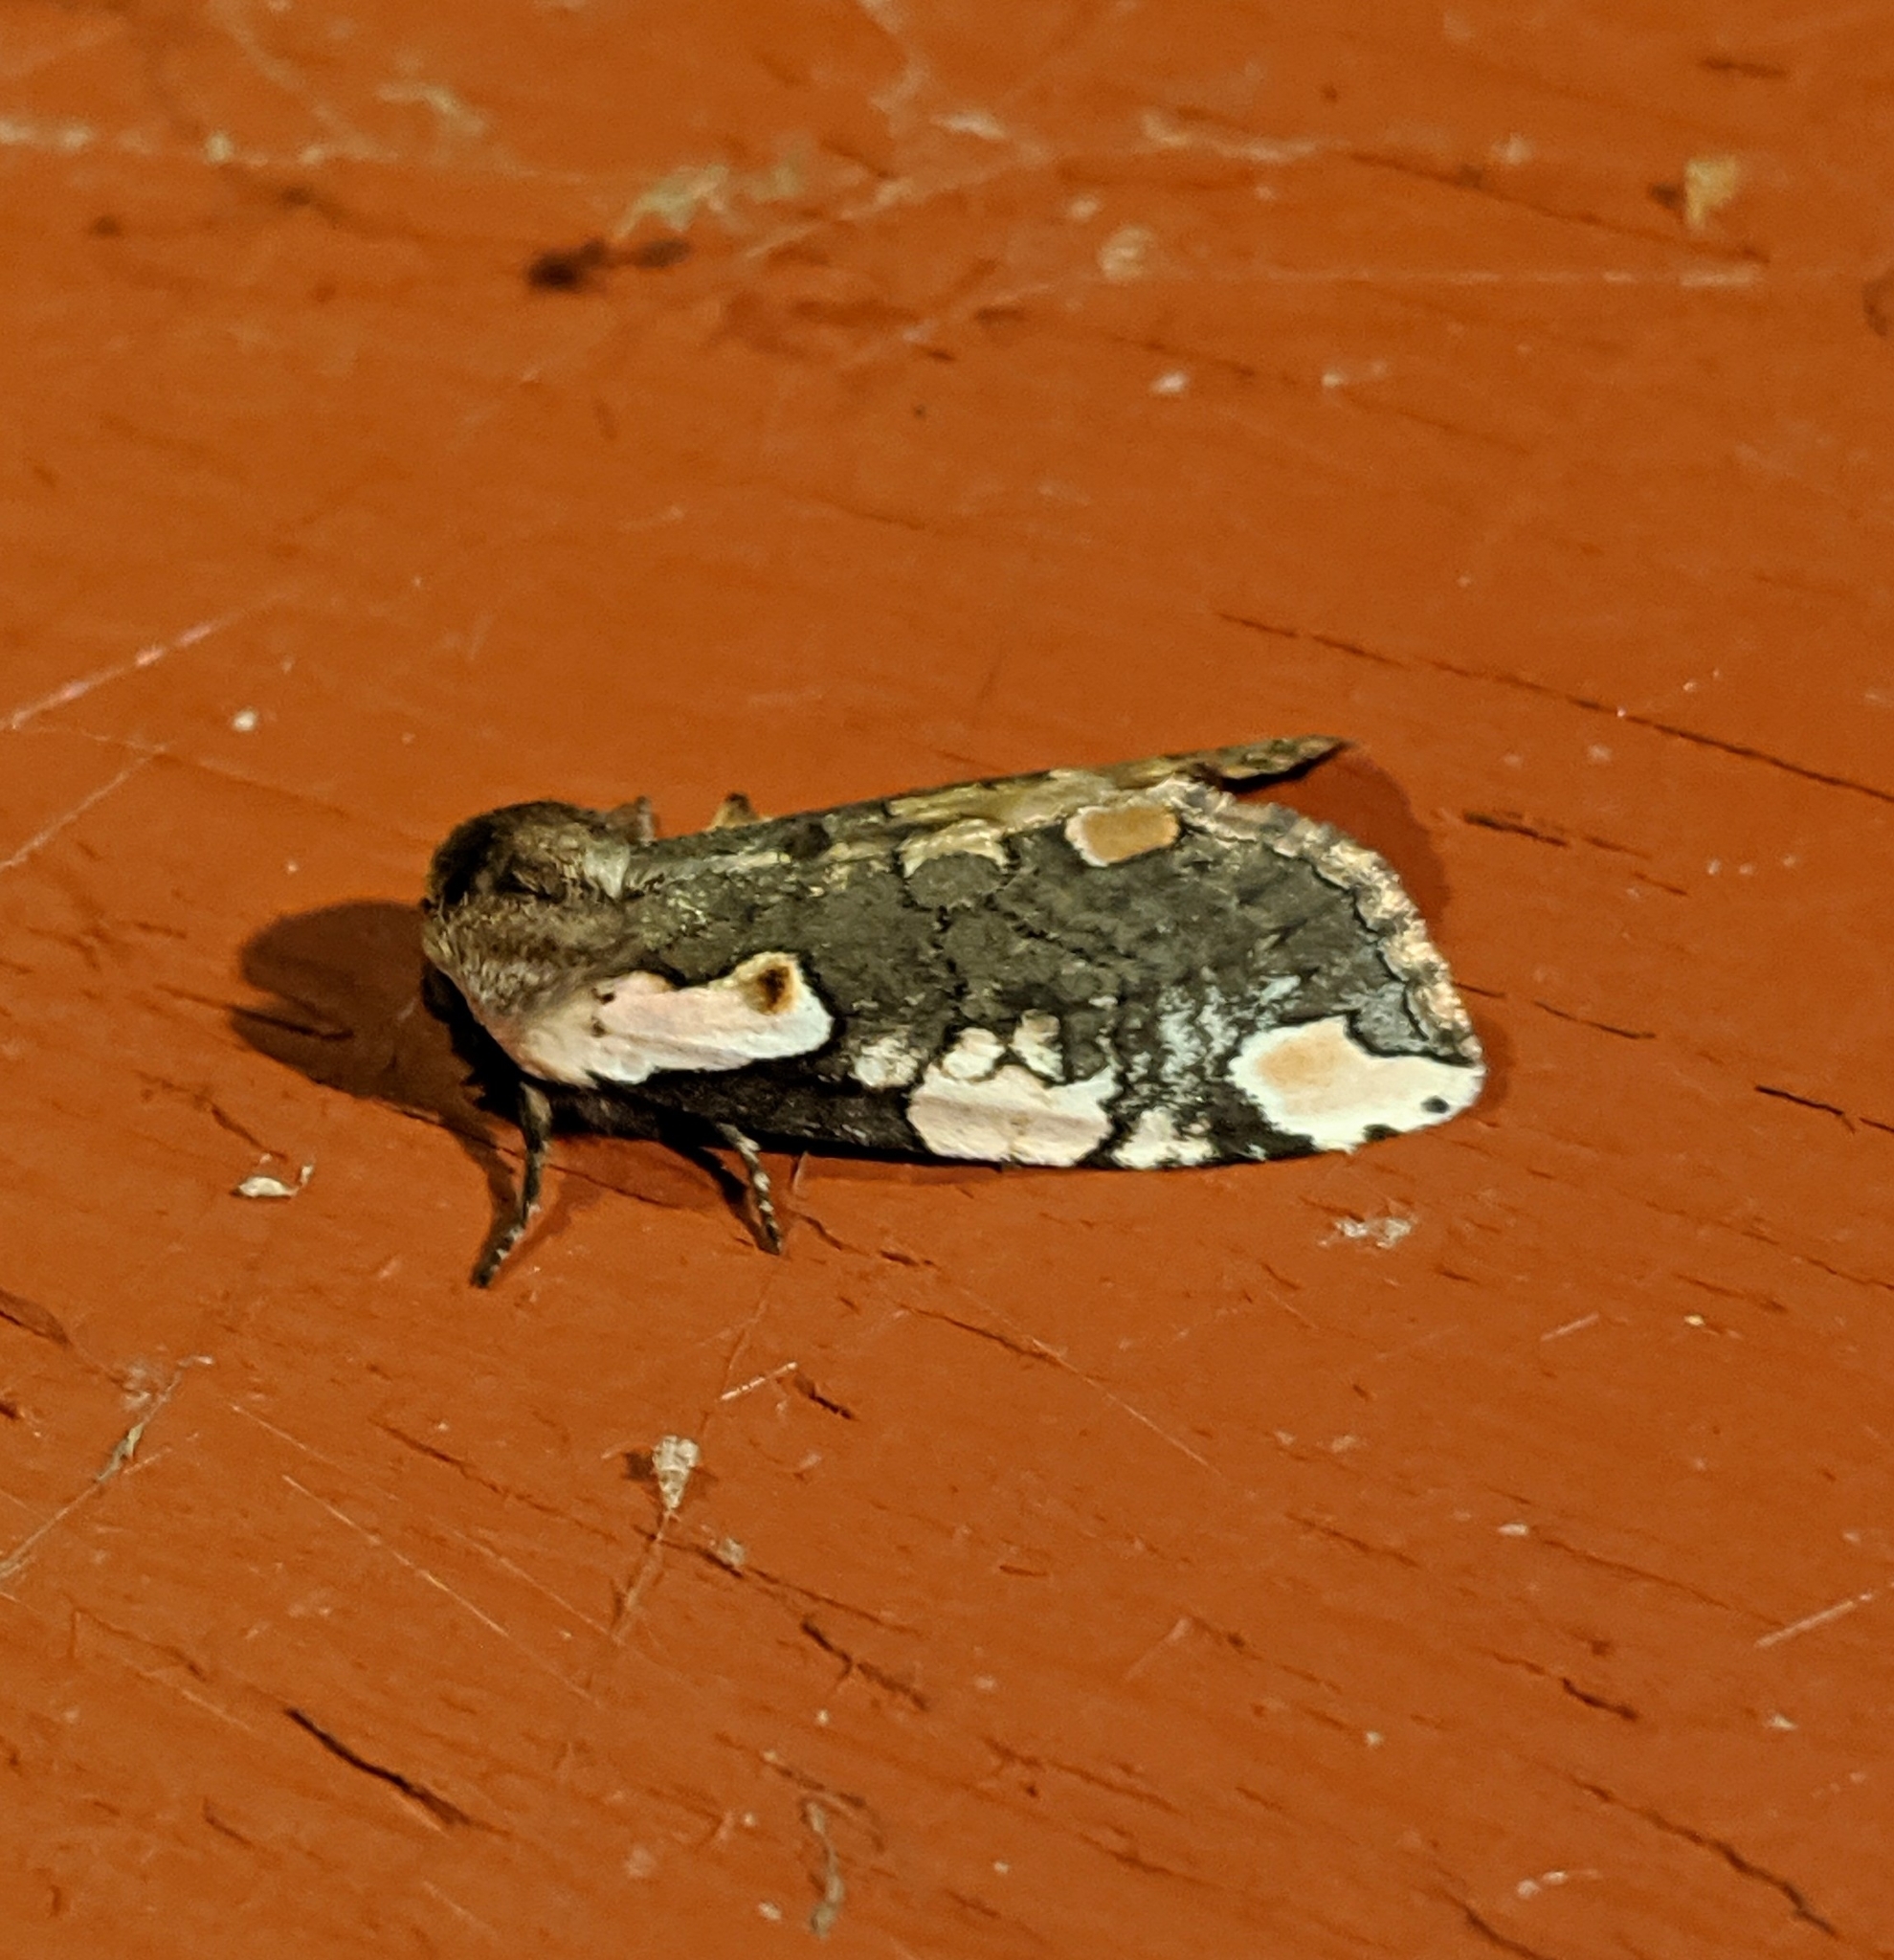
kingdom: Animalia
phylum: Arthropoda
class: Insecta
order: Lepidoptera
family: Drepanidae
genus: Euthyatira
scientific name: Euthyatira pudens
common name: Dogwood thyatirid moth
